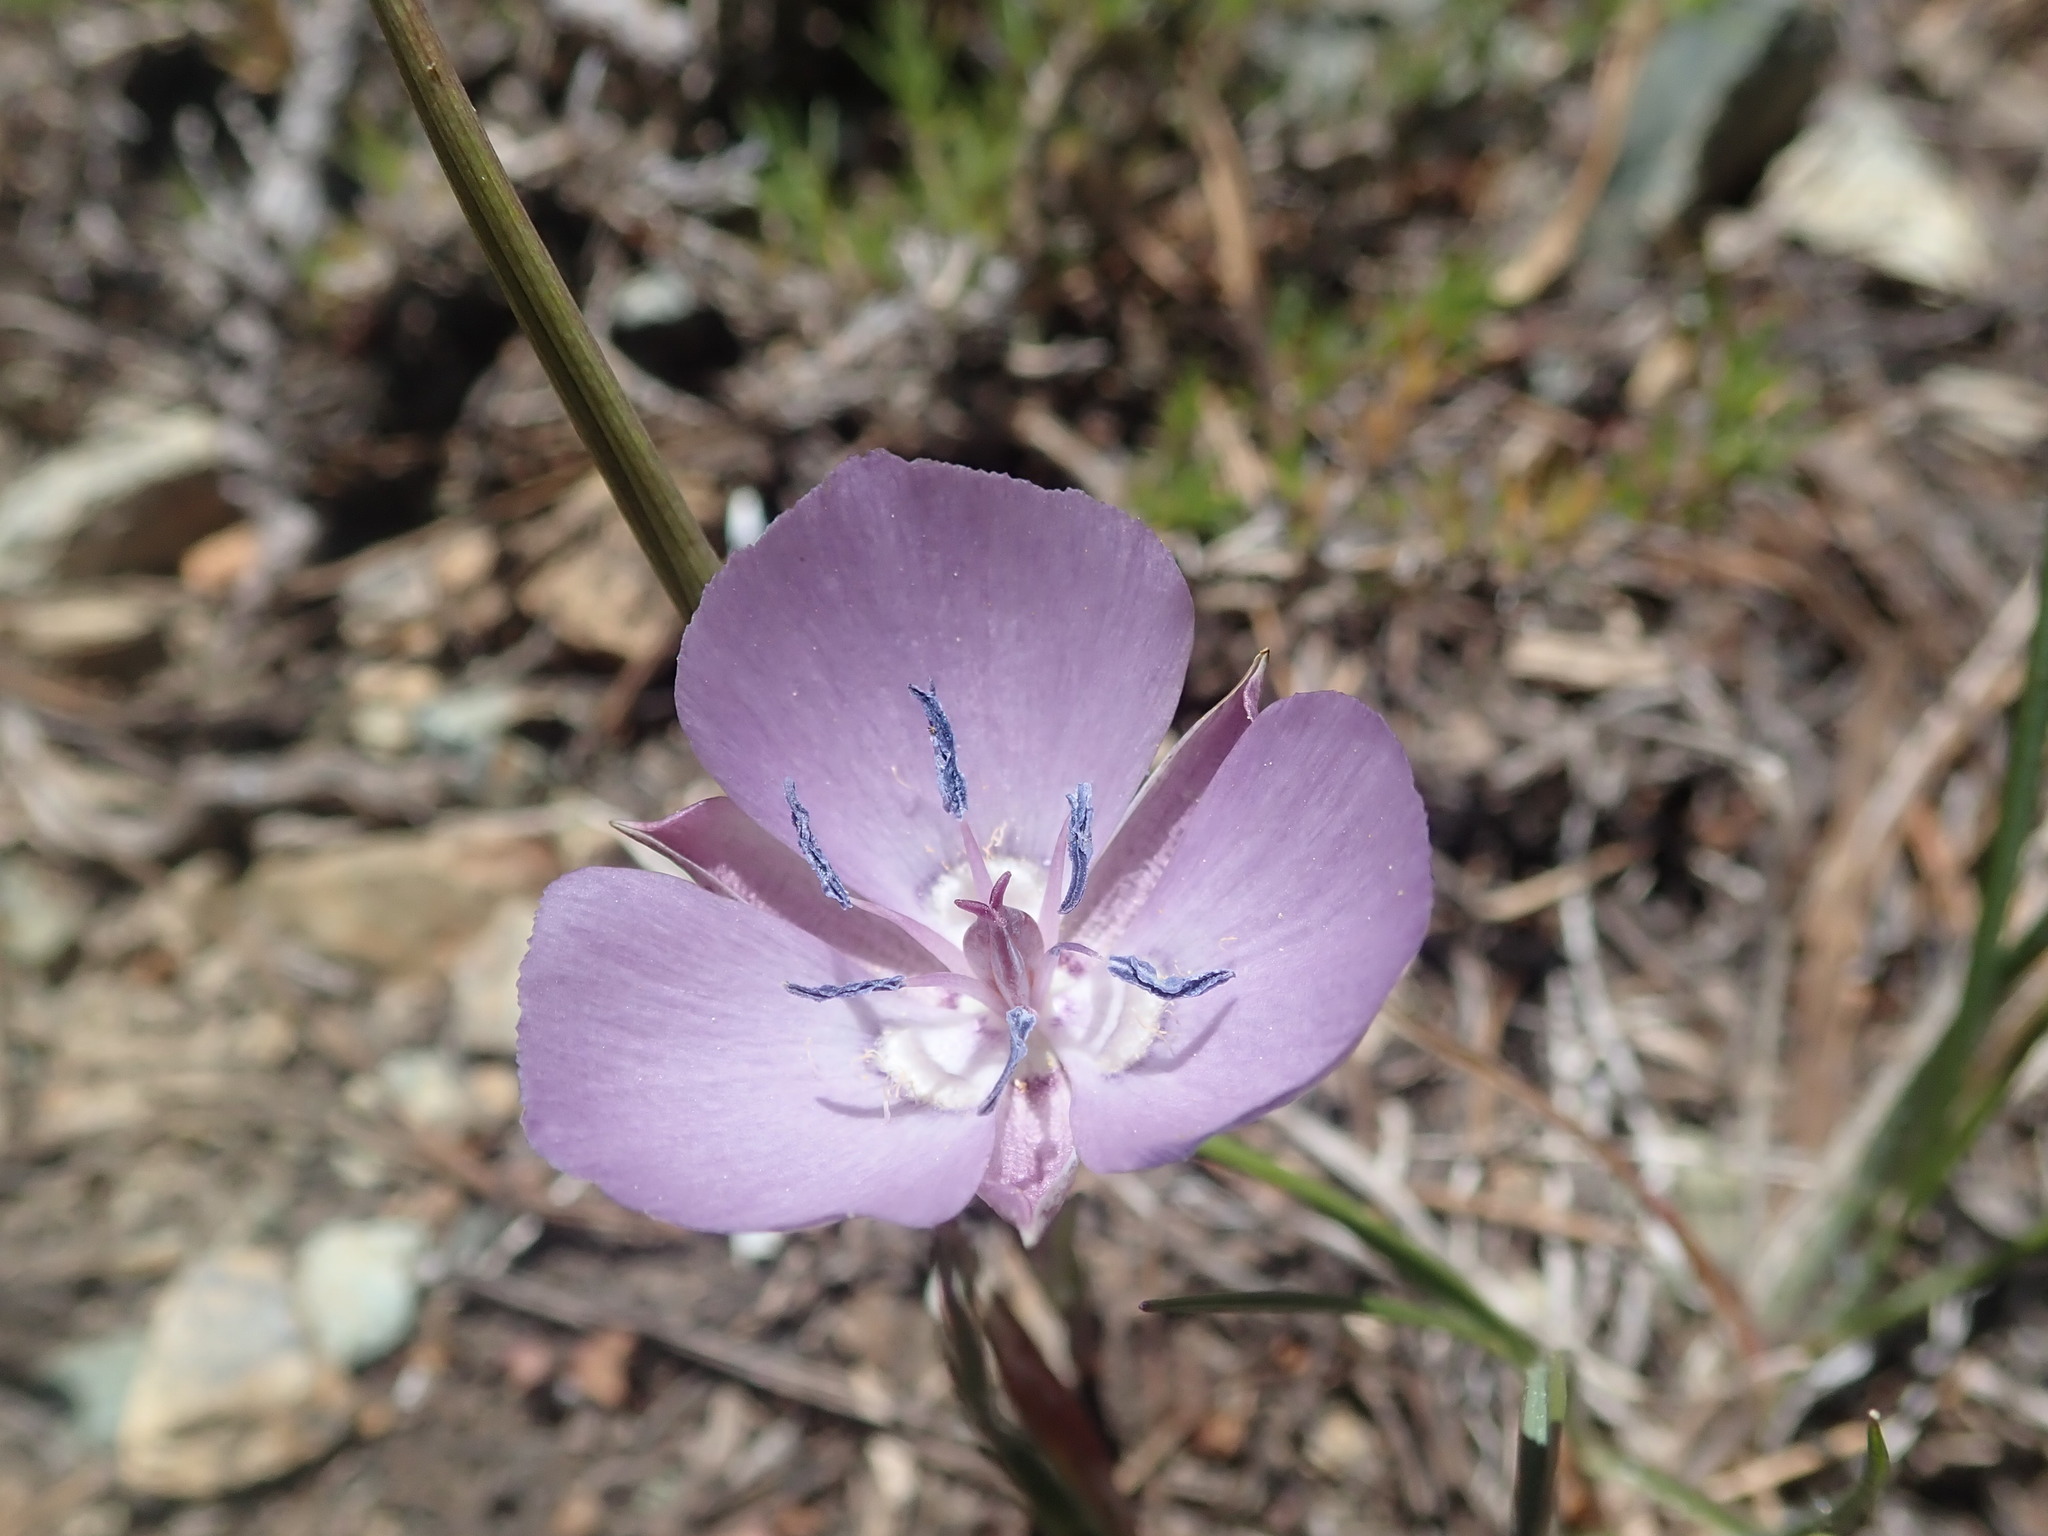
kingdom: Plantae
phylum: Tracheophyta
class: Liliopsida
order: Liliales
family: Liliaceae
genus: Calochortus
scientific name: Calochortus nudus
